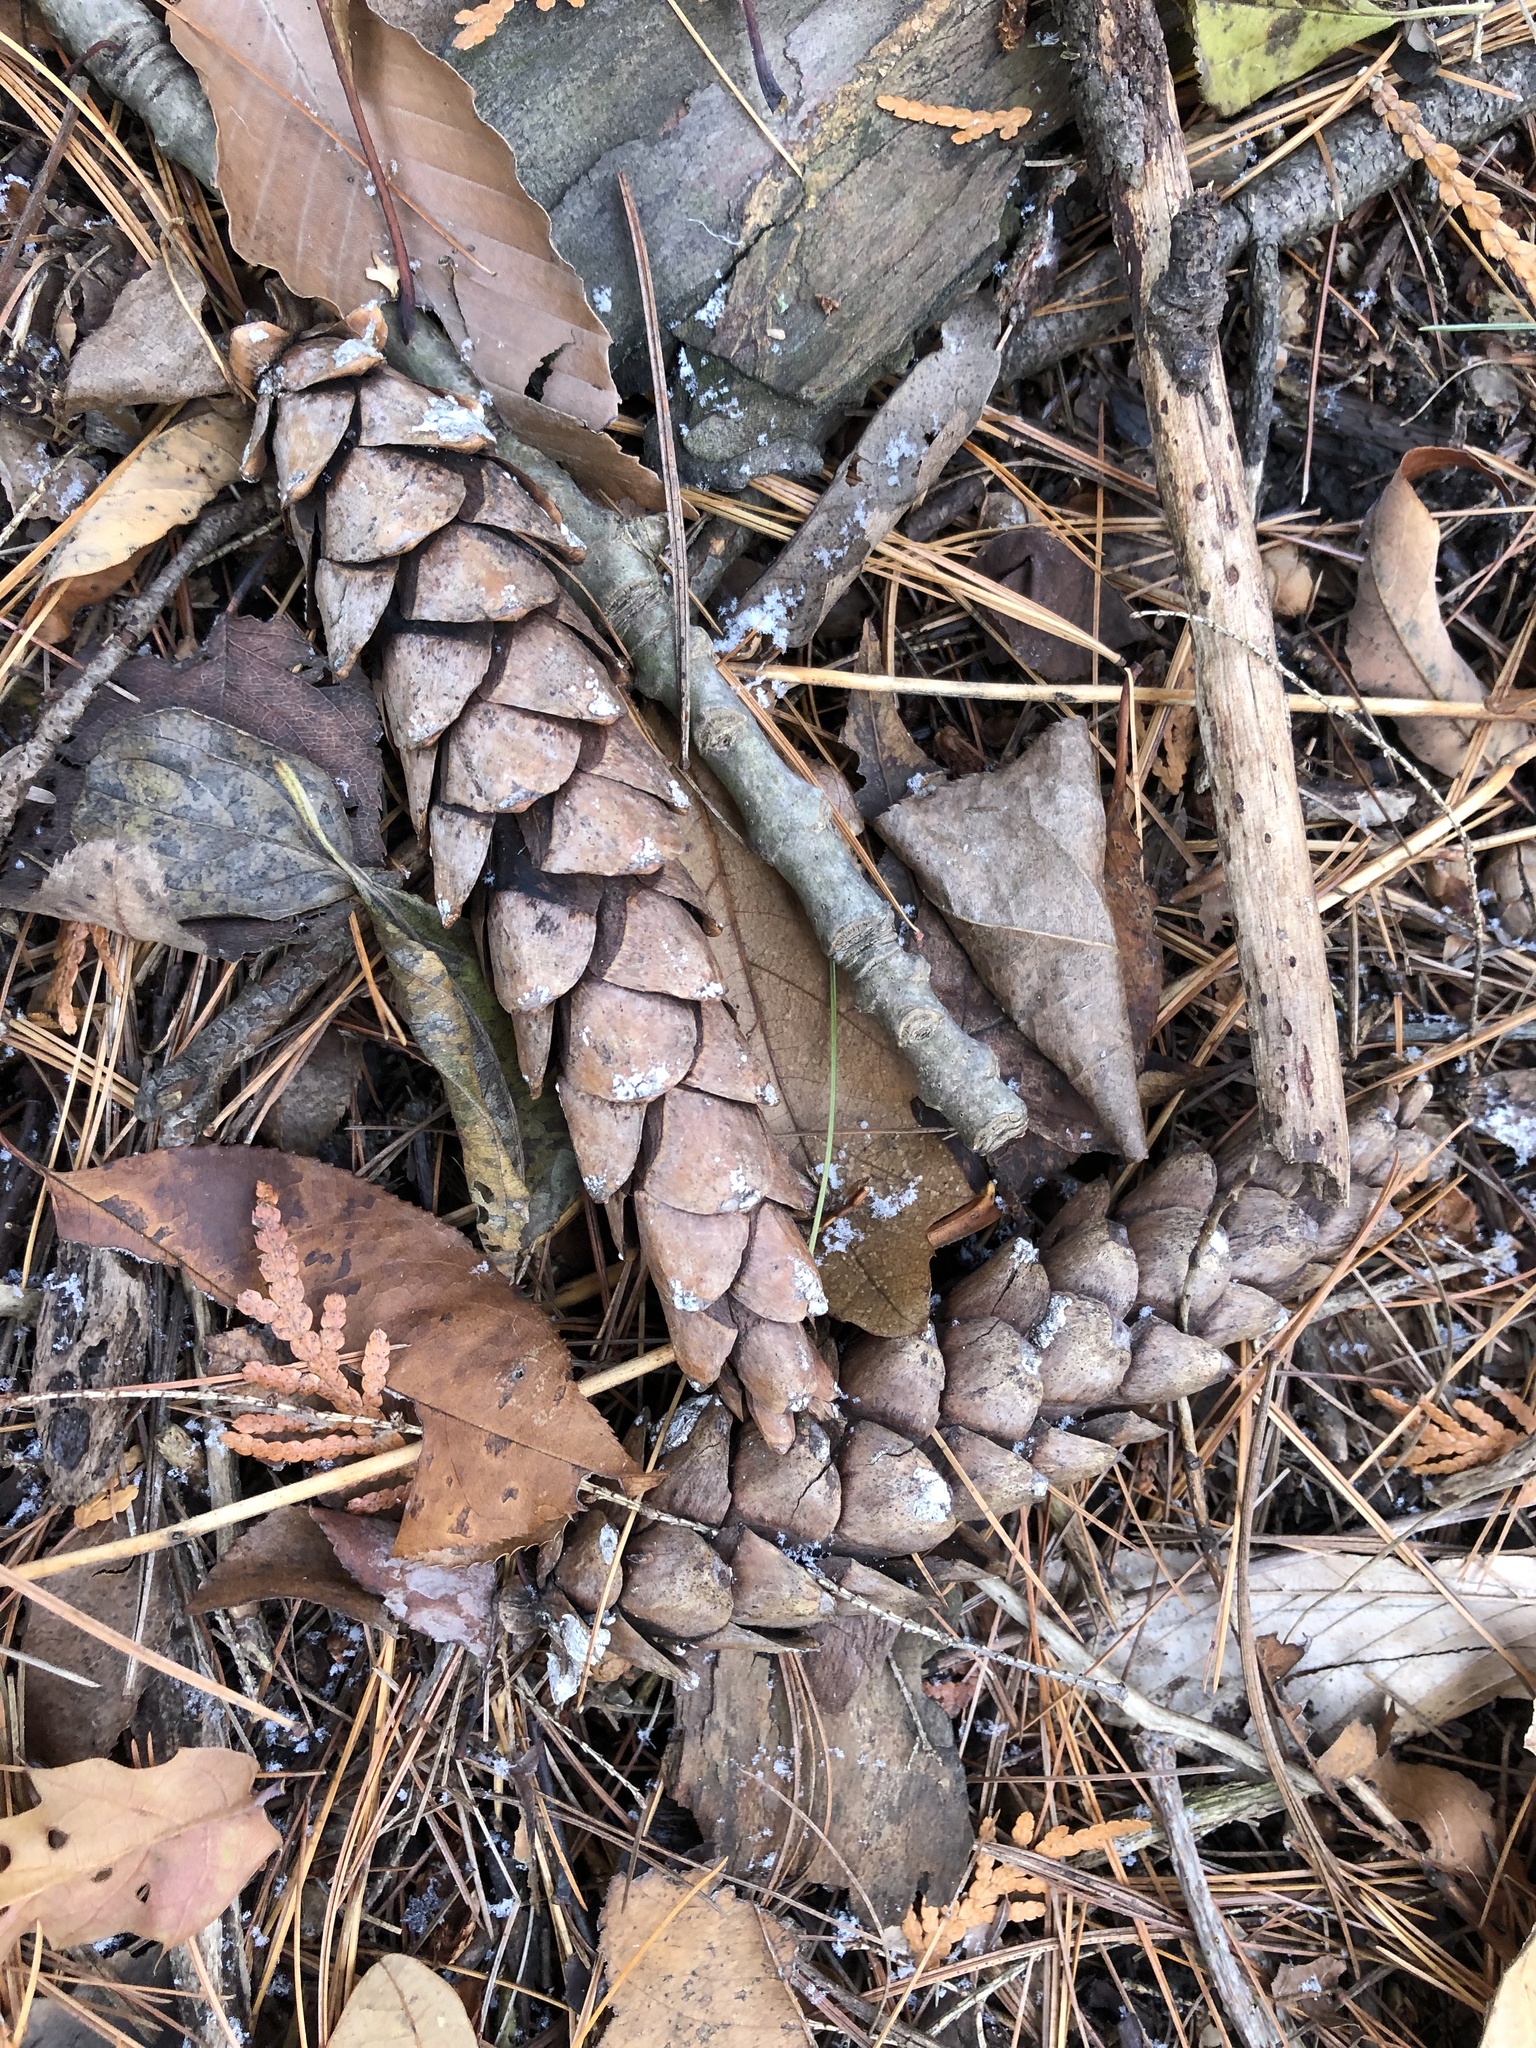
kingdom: Plantae
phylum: Tracheophyta
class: Pinopsida
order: Pinales
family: Pinaceae
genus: Pinus
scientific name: Pinus strobus
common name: Weymouth pine
